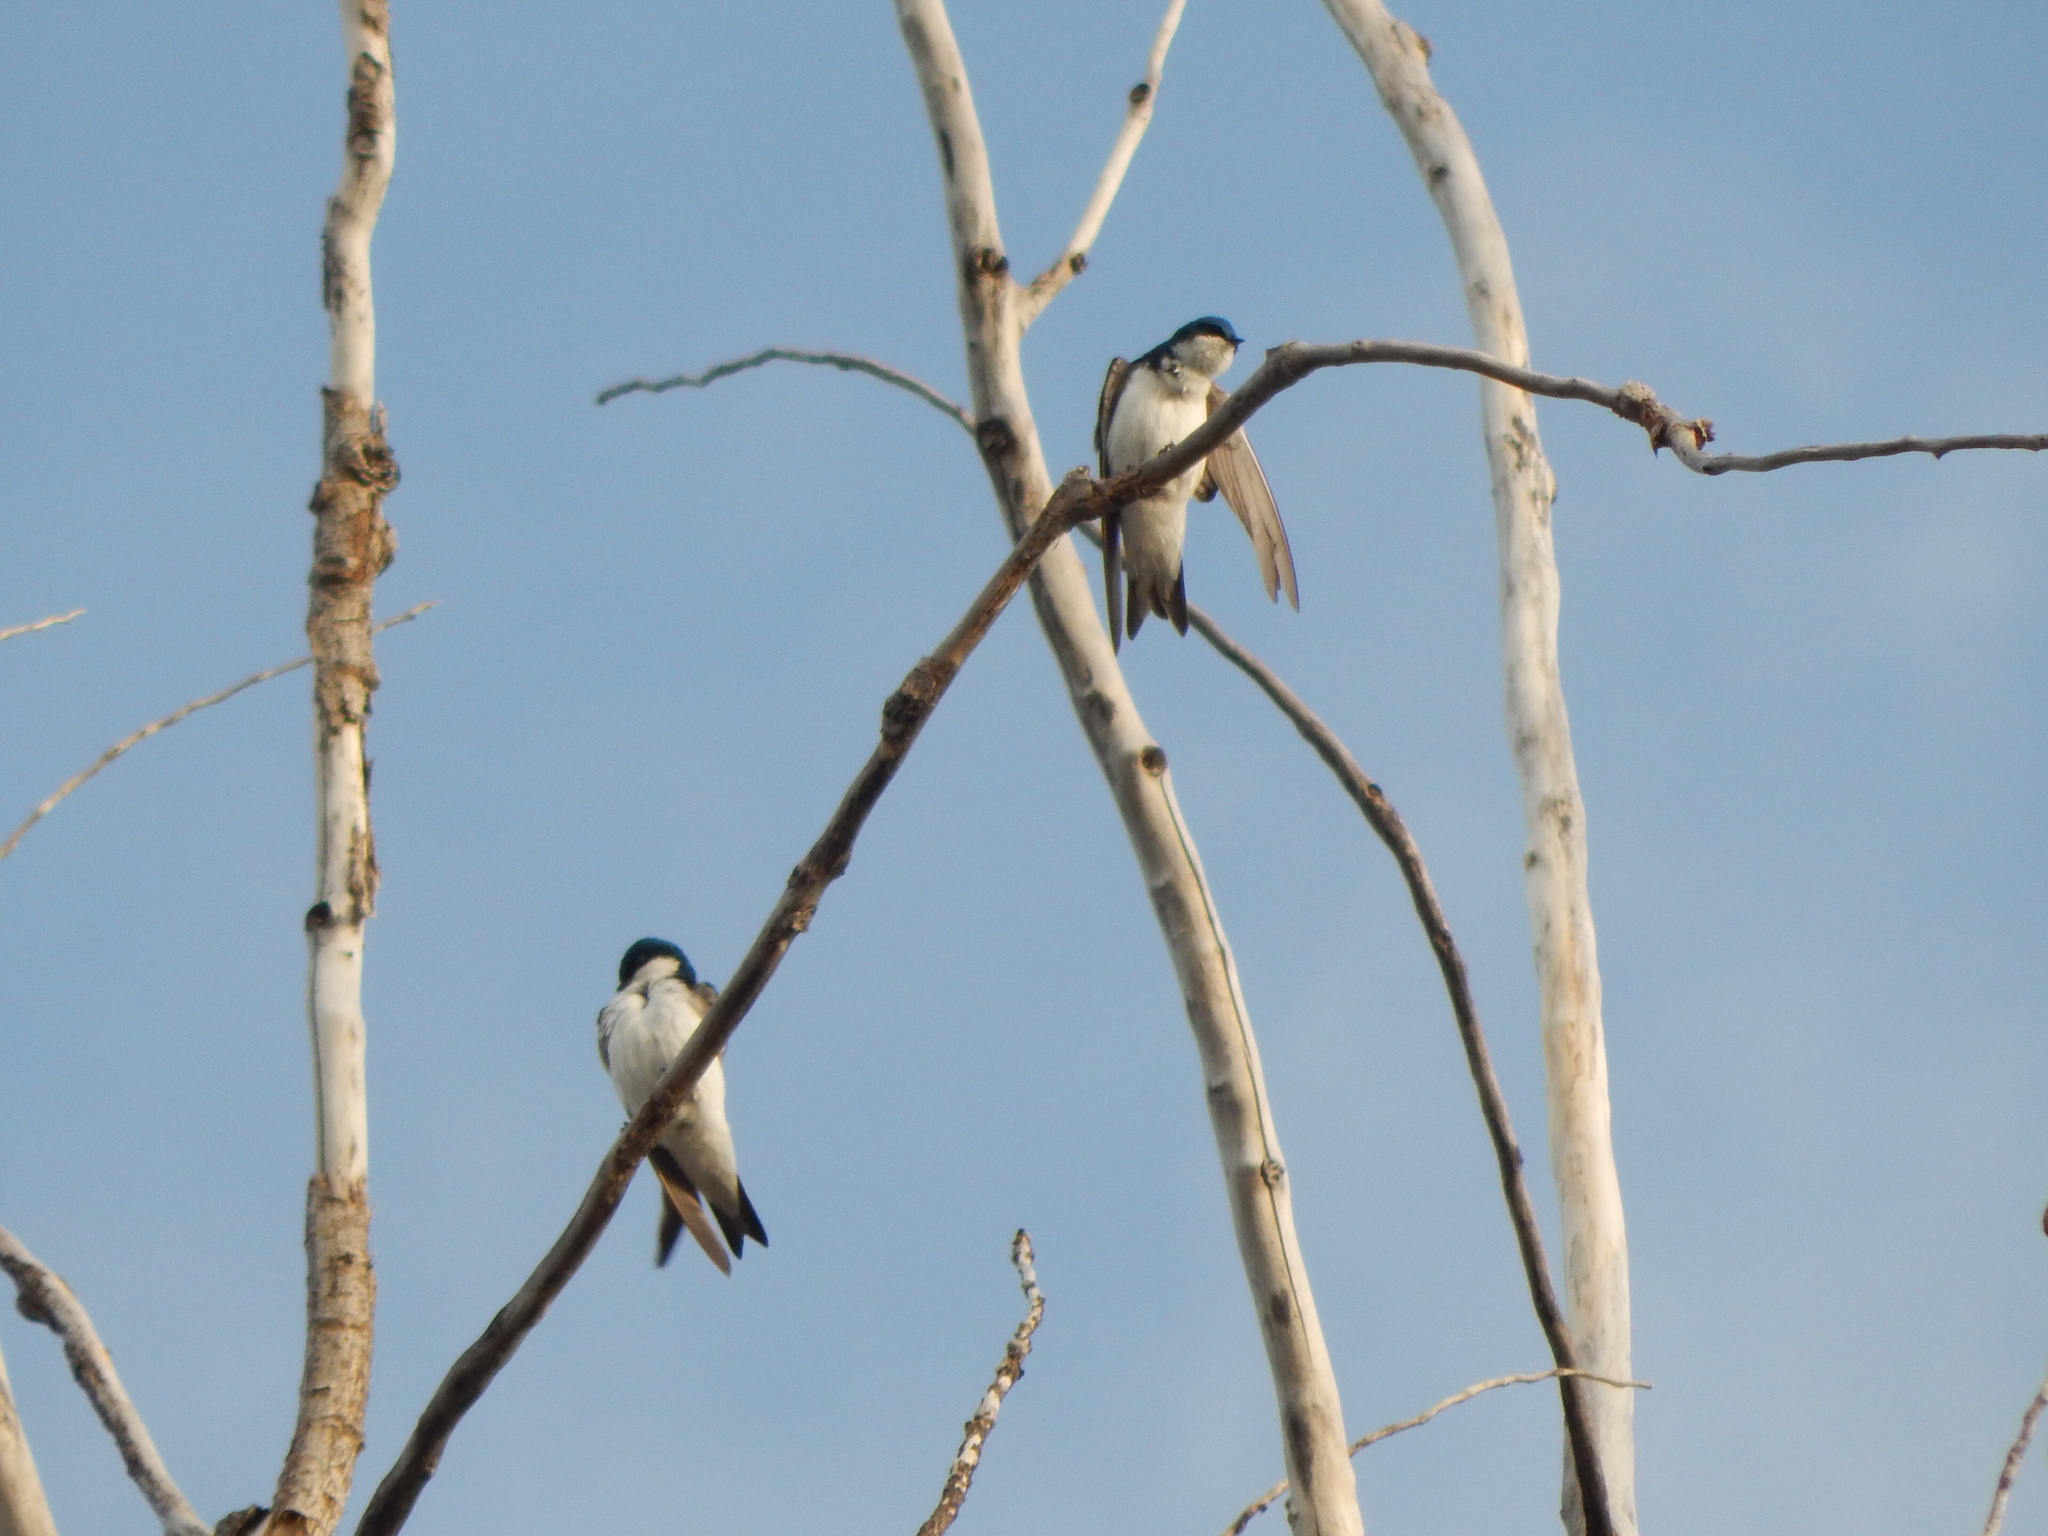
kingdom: Animalia
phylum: Chordata
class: Aves
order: Passeriformes
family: Hirundinidae
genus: Tachycineta
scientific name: Tachycineta bicolor
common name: Tree swallow
